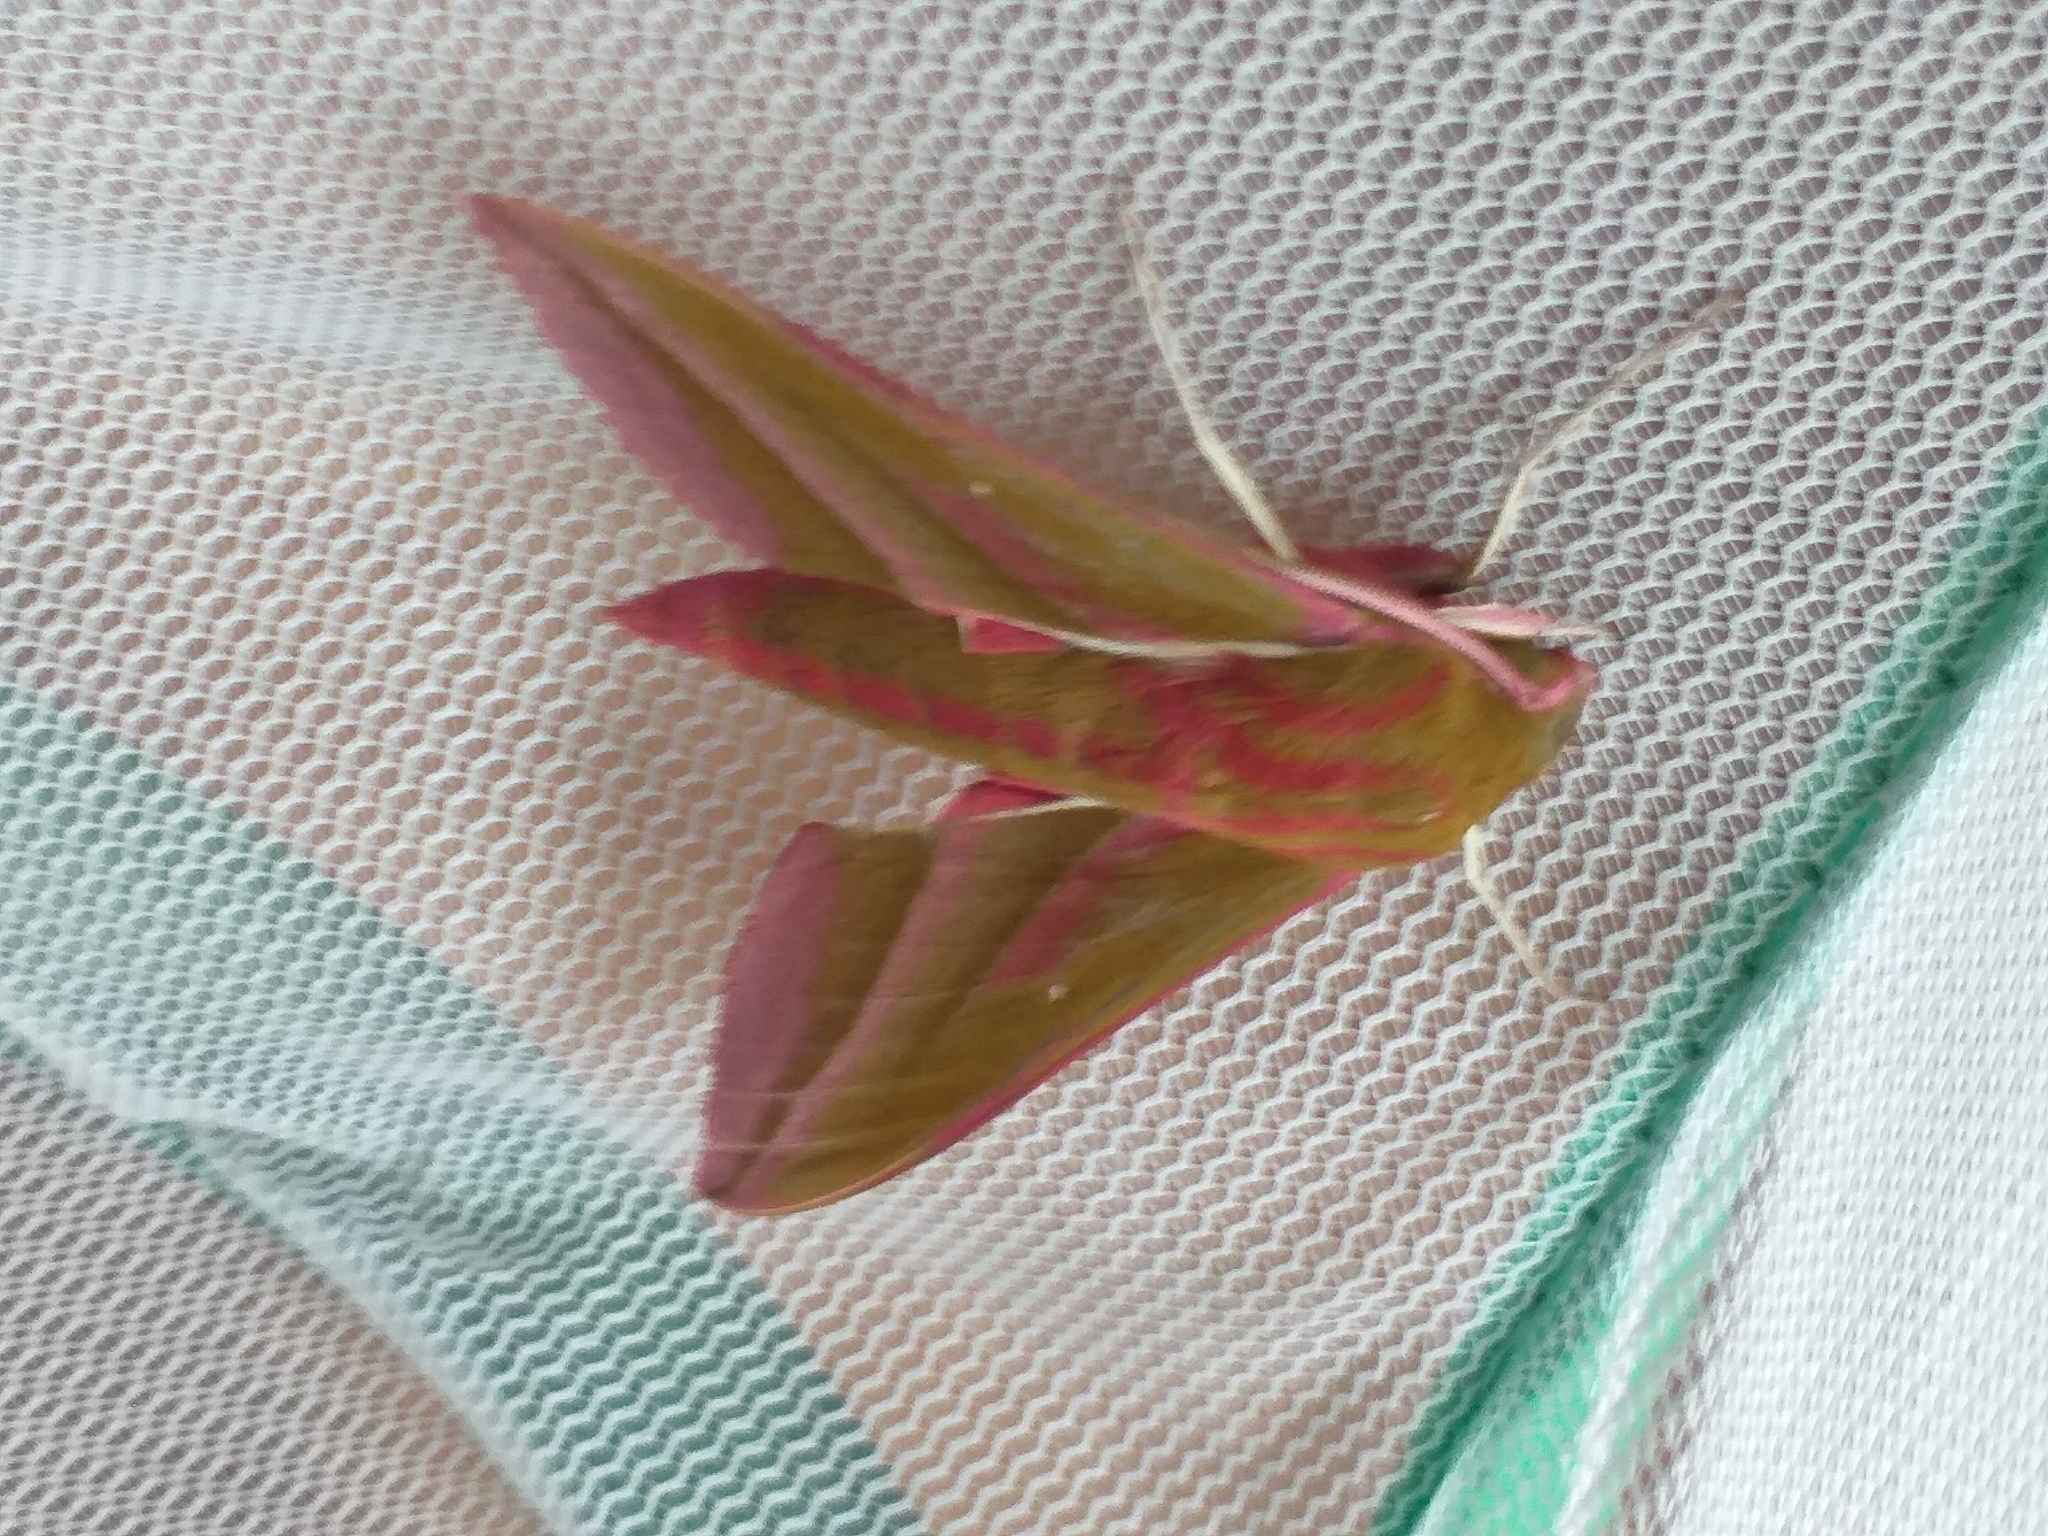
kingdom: Animalia
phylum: Arthropoda
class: Insecta
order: Lepidoptera
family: Sphingidae
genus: Deilephila
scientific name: Deilephila elpenor
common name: Elephant hawk-moth
